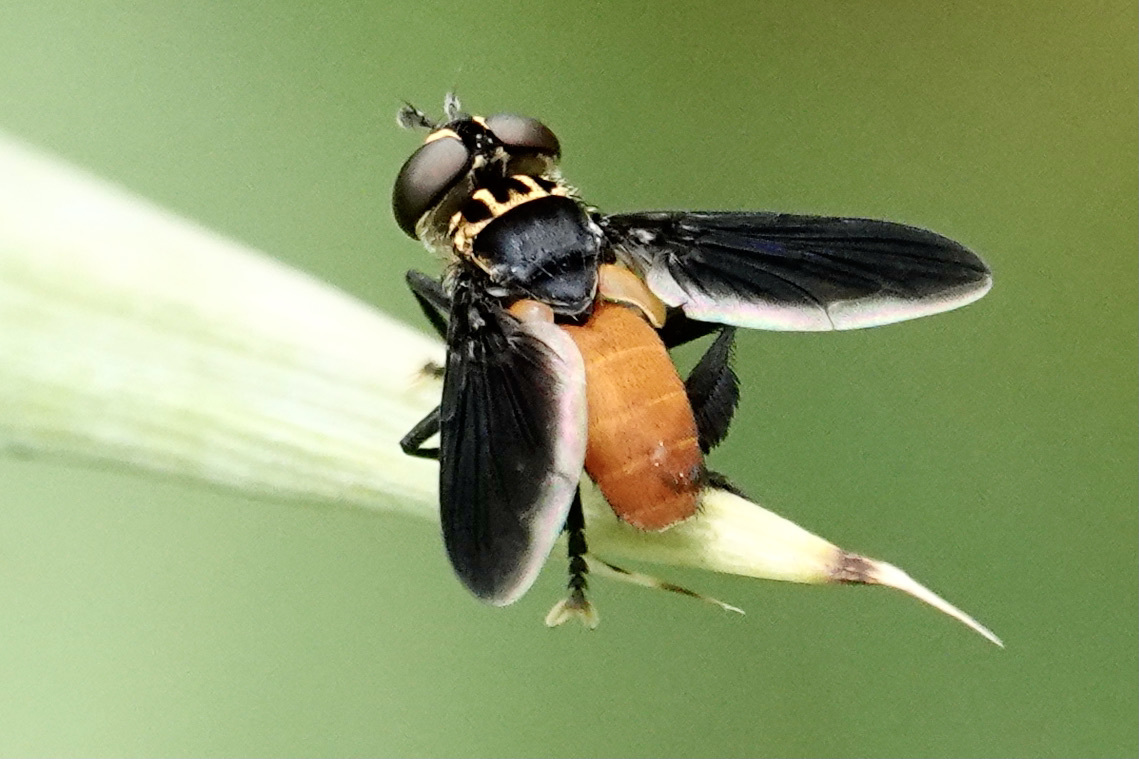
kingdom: Animalia
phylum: Arthropoda
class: Insecta
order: Diptera
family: Tachinidae
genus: Trichopoda
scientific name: Trichopoda pennipes
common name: Tachinid fly
